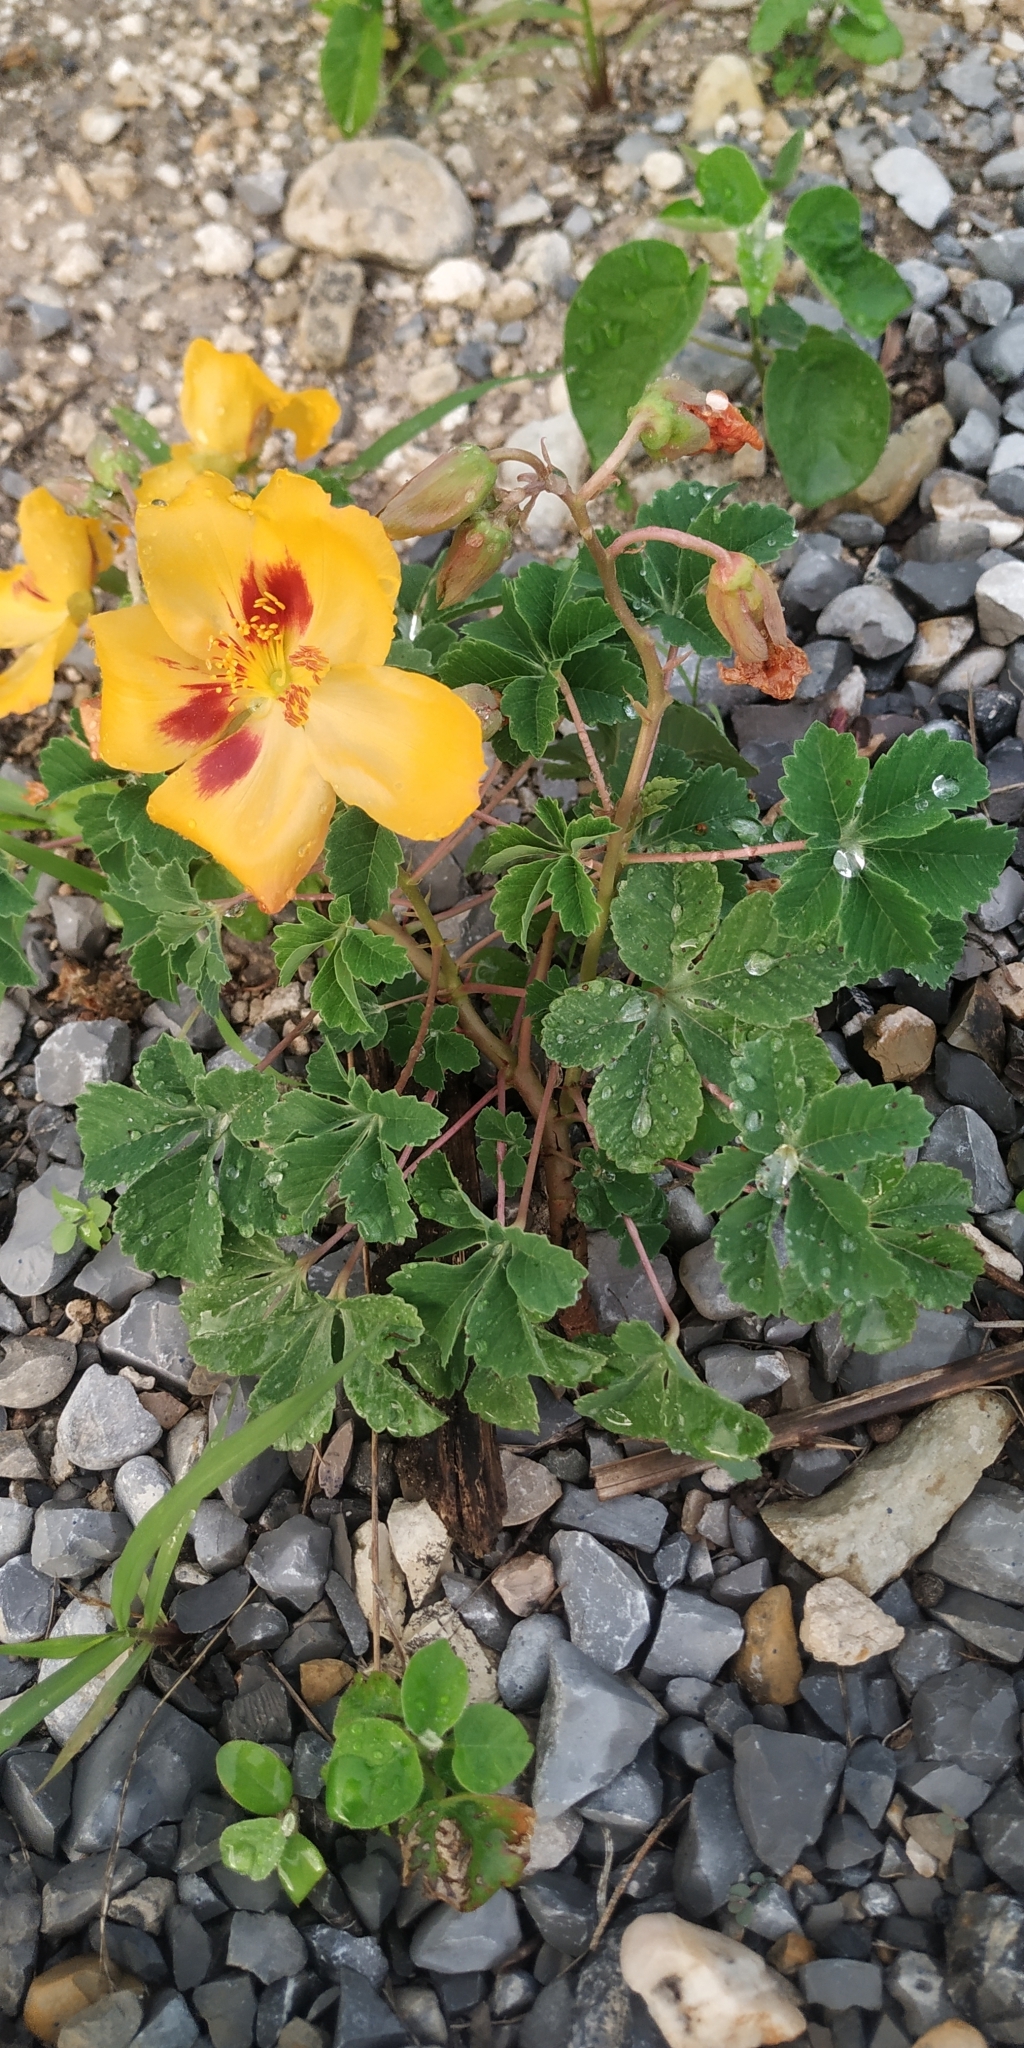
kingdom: Plantae
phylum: Tracheophyta
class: Magnoliopsida
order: Malvales
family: Cochlospermaceae
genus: Cochlospermum
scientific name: Cochlospermum wrightii
